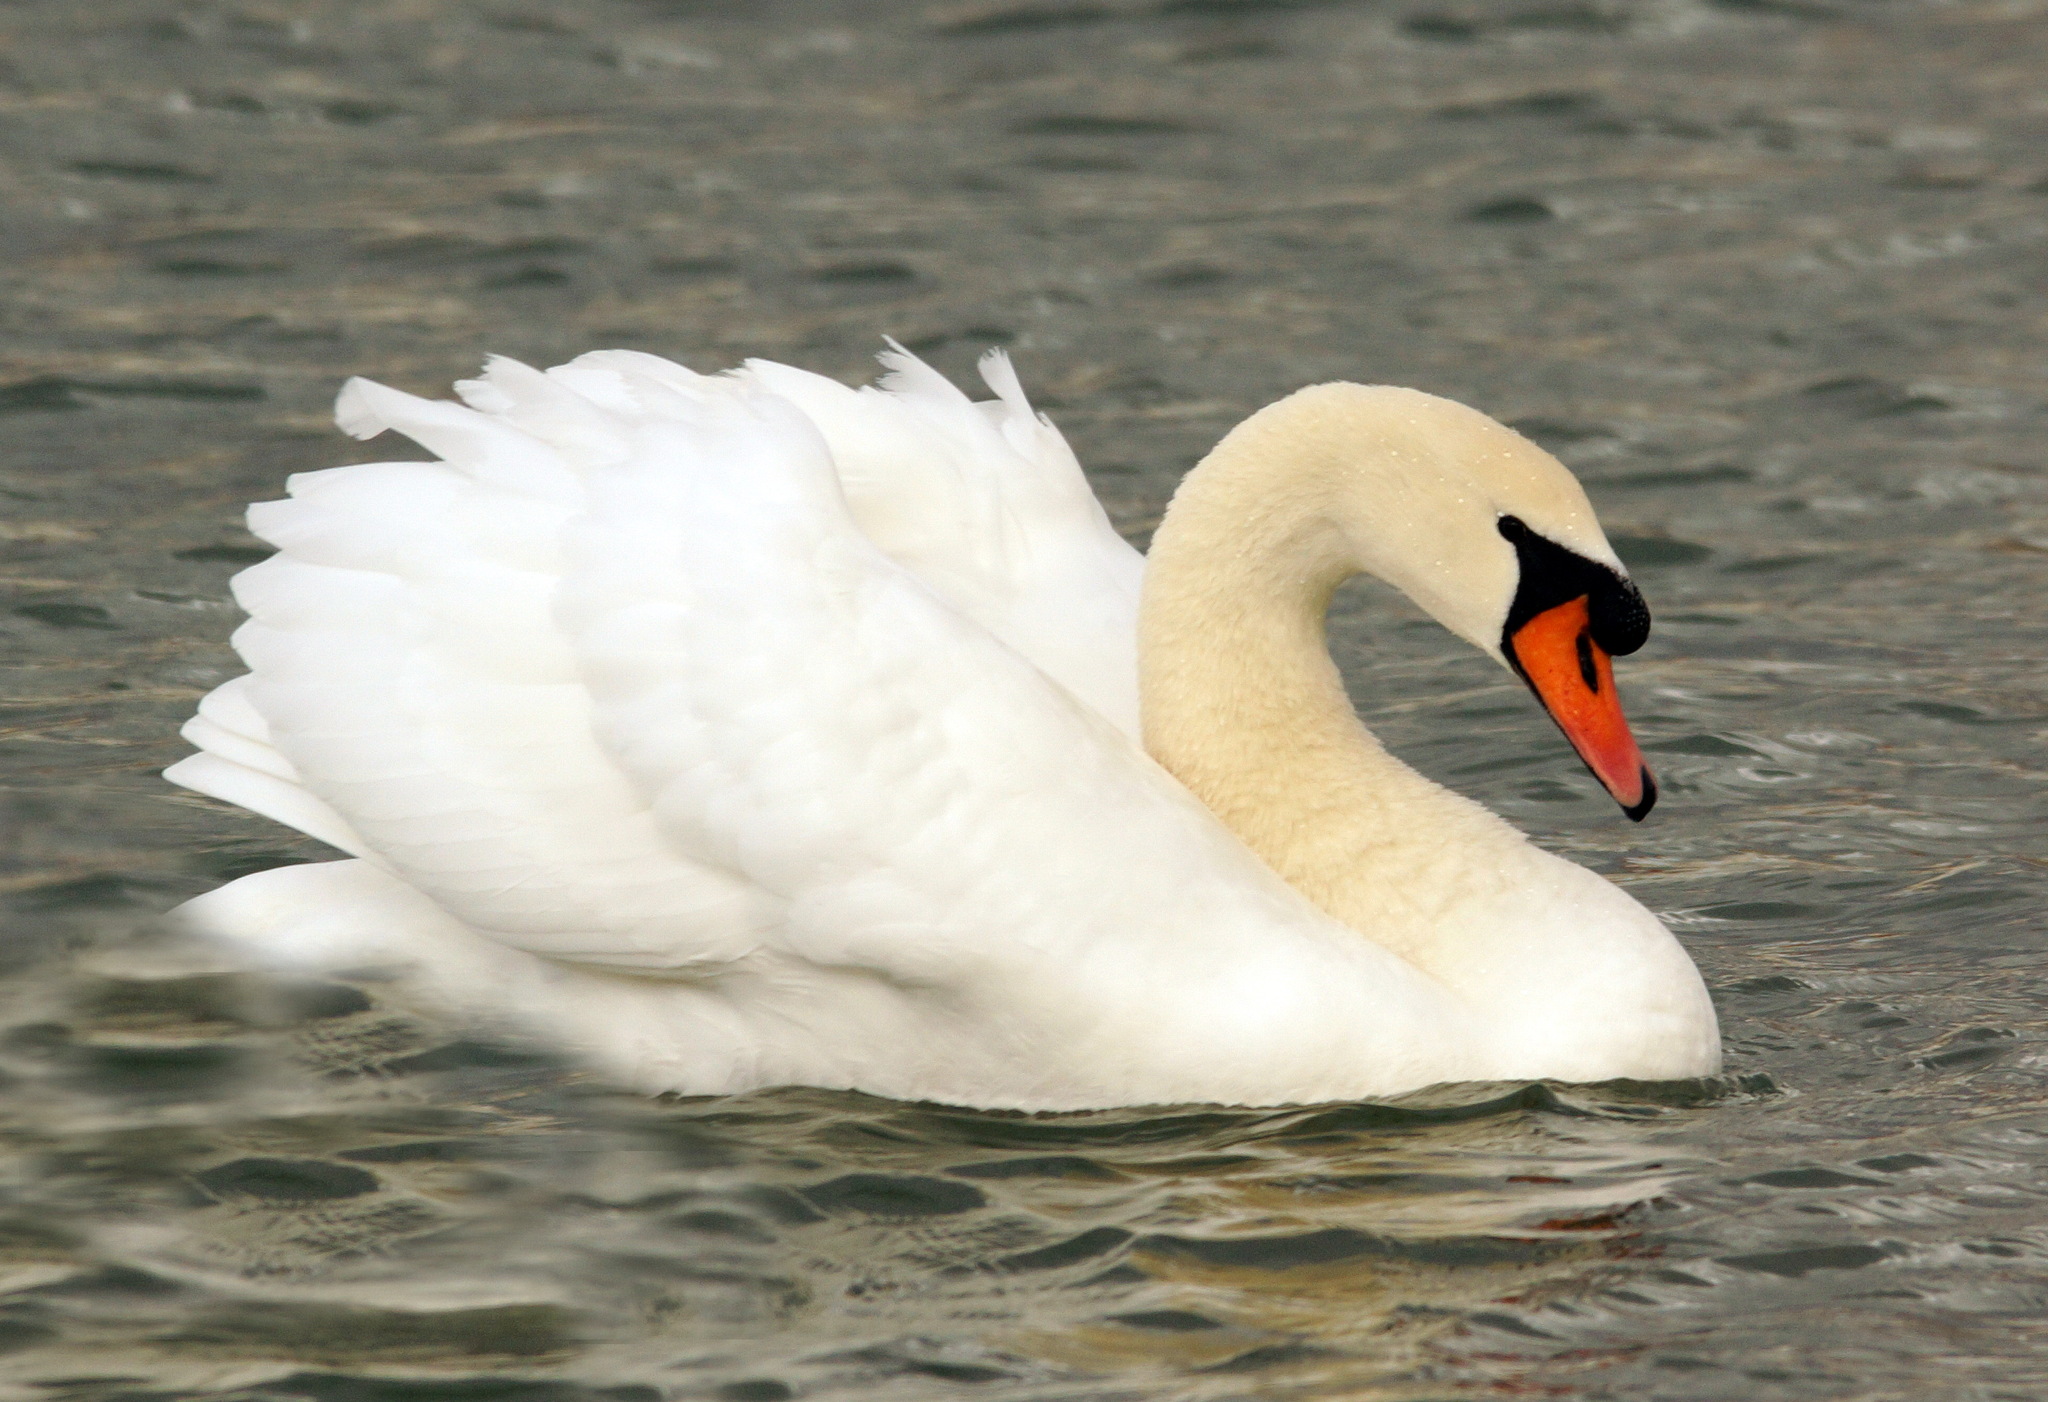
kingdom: Animalia
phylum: Chordata
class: Aves
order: Anseriformes
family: Anatidae
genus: Cygnus
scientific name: Cygnus olor
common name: Mute swan
